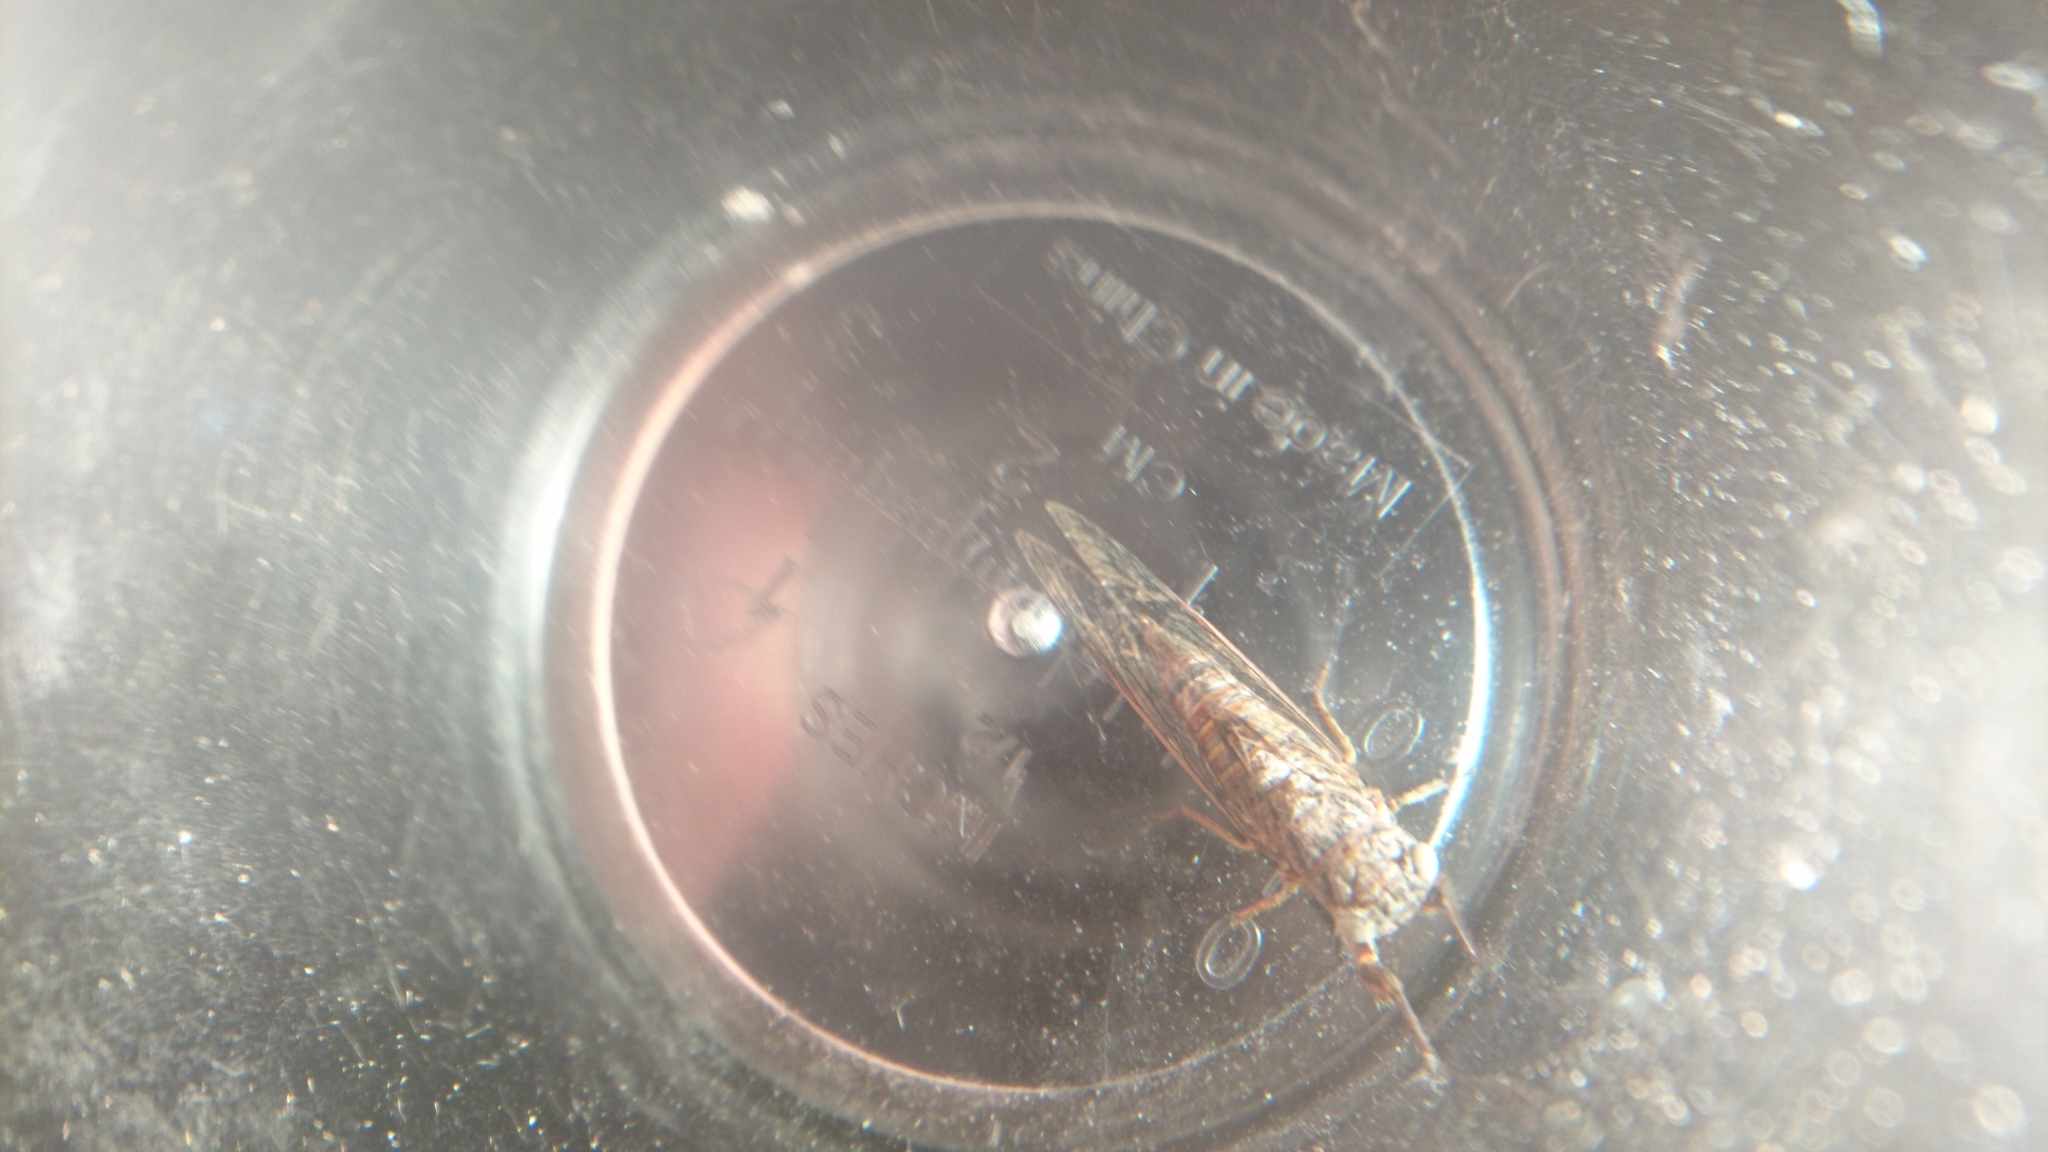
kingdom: Animalia
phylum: Arthropoda
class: Insecta
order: Hemiptera
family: Cicadidae
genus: Drymopsalta
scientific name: Drymopsalta wallumi
